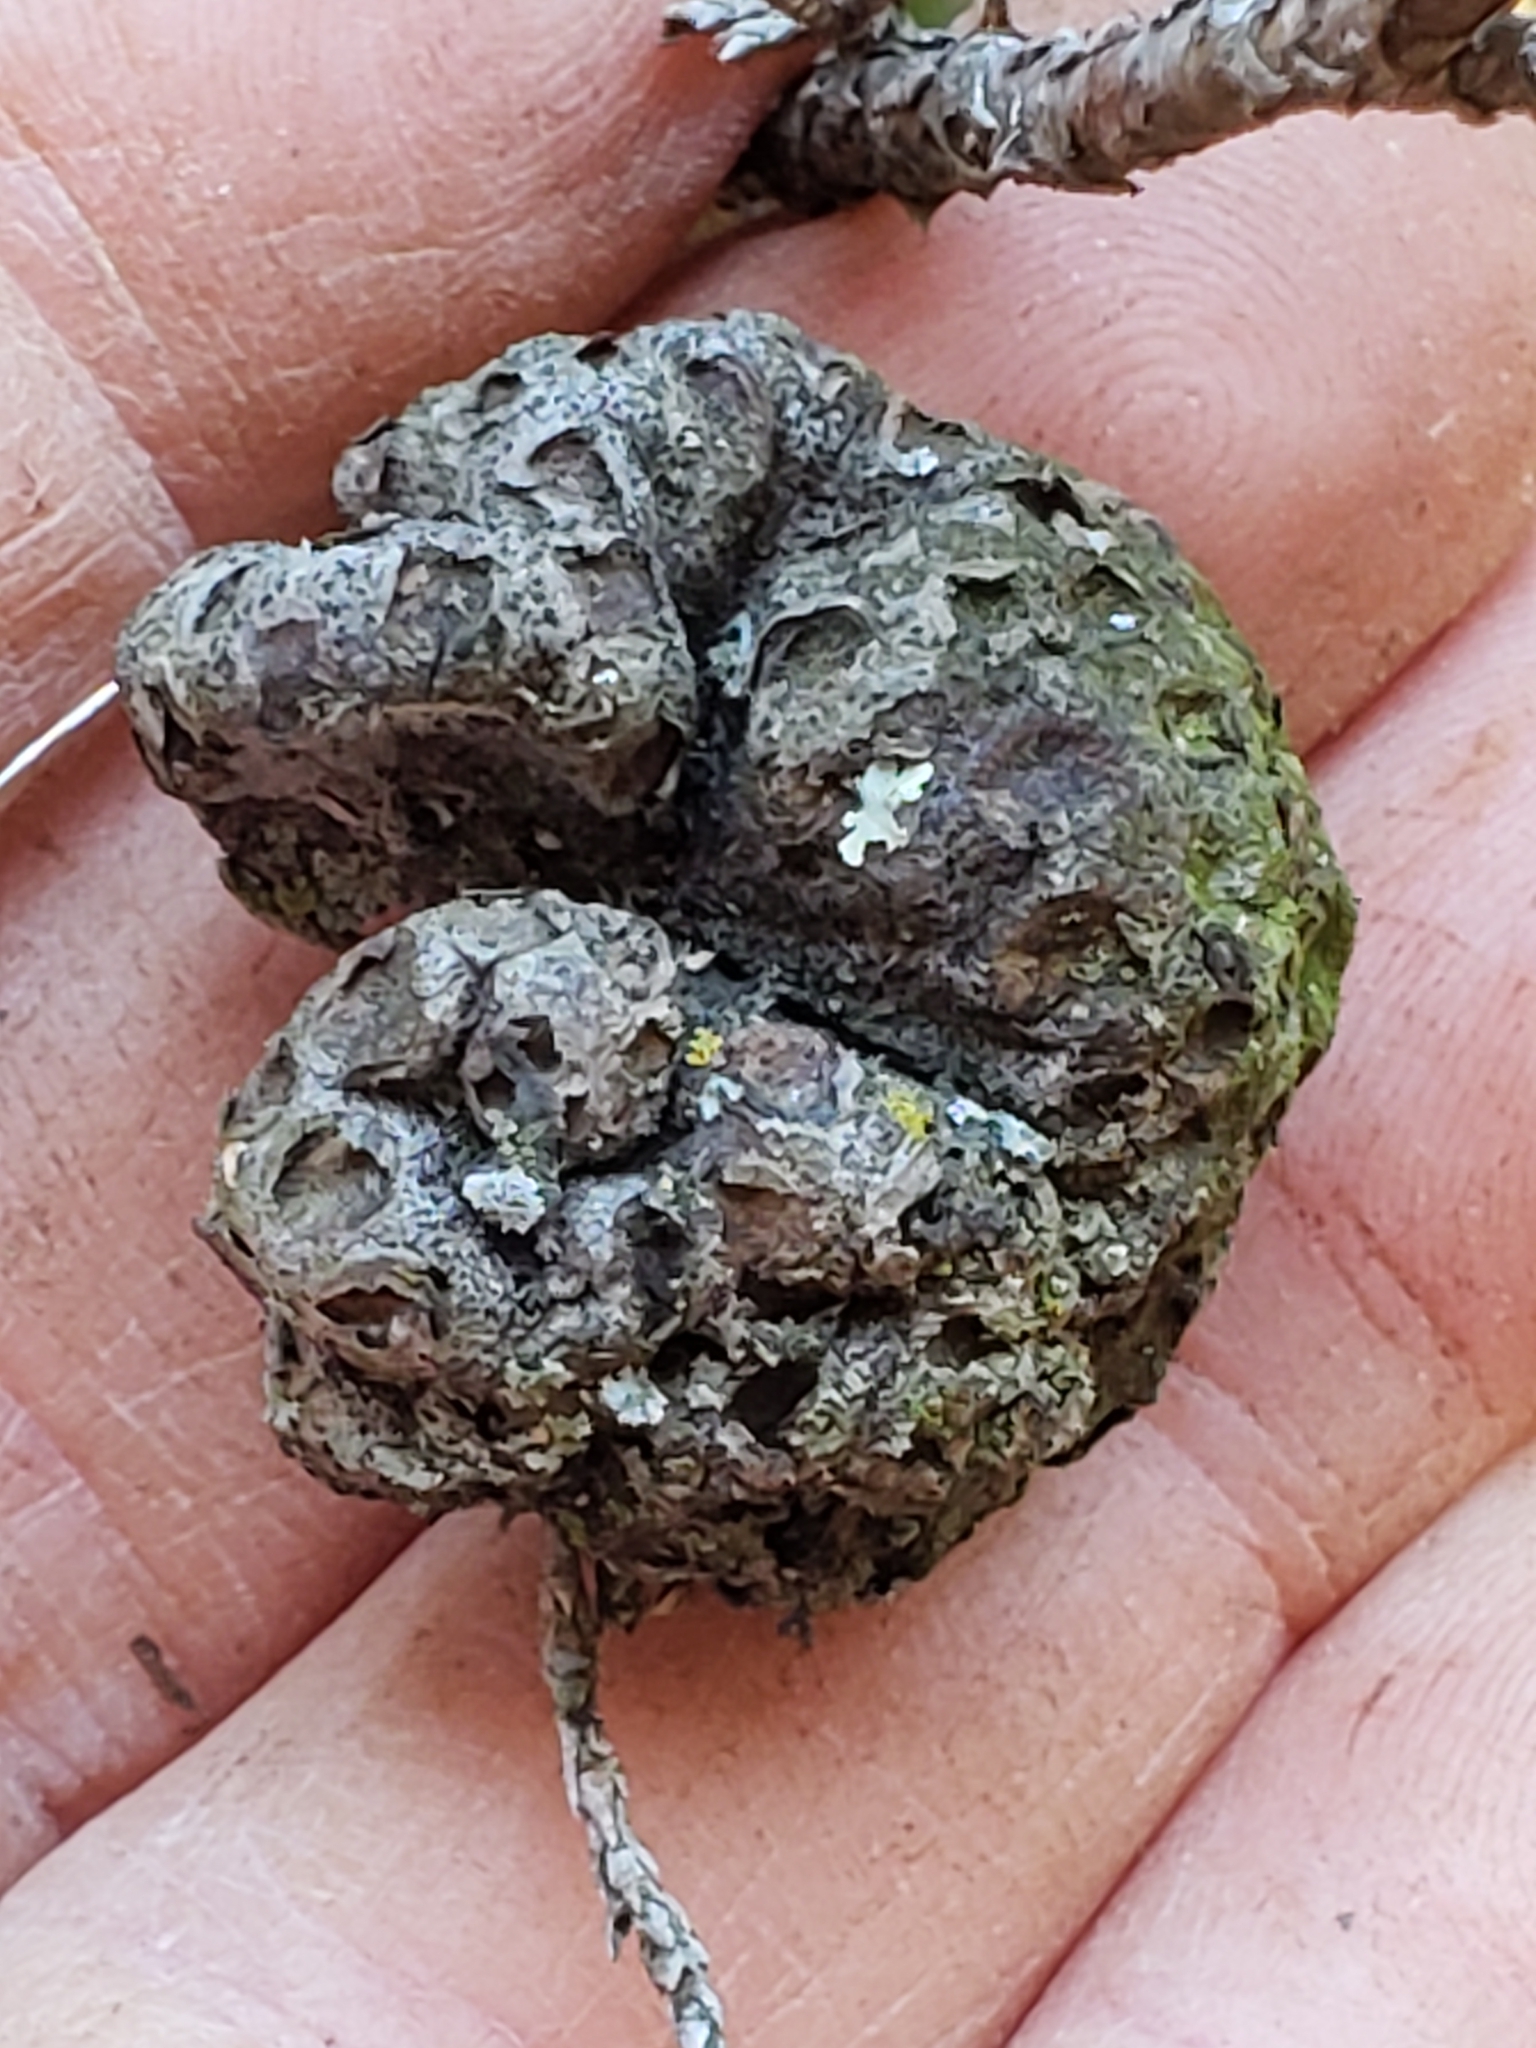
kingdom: Fungi
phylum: Basidiomycota
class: Pucciniomycetes
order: Pucciniales
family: Gymnosporangiaceae
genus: Gymnosporangium
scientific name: Gymnosporangium juniperi-virginianae
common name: Juniper-apple rust
